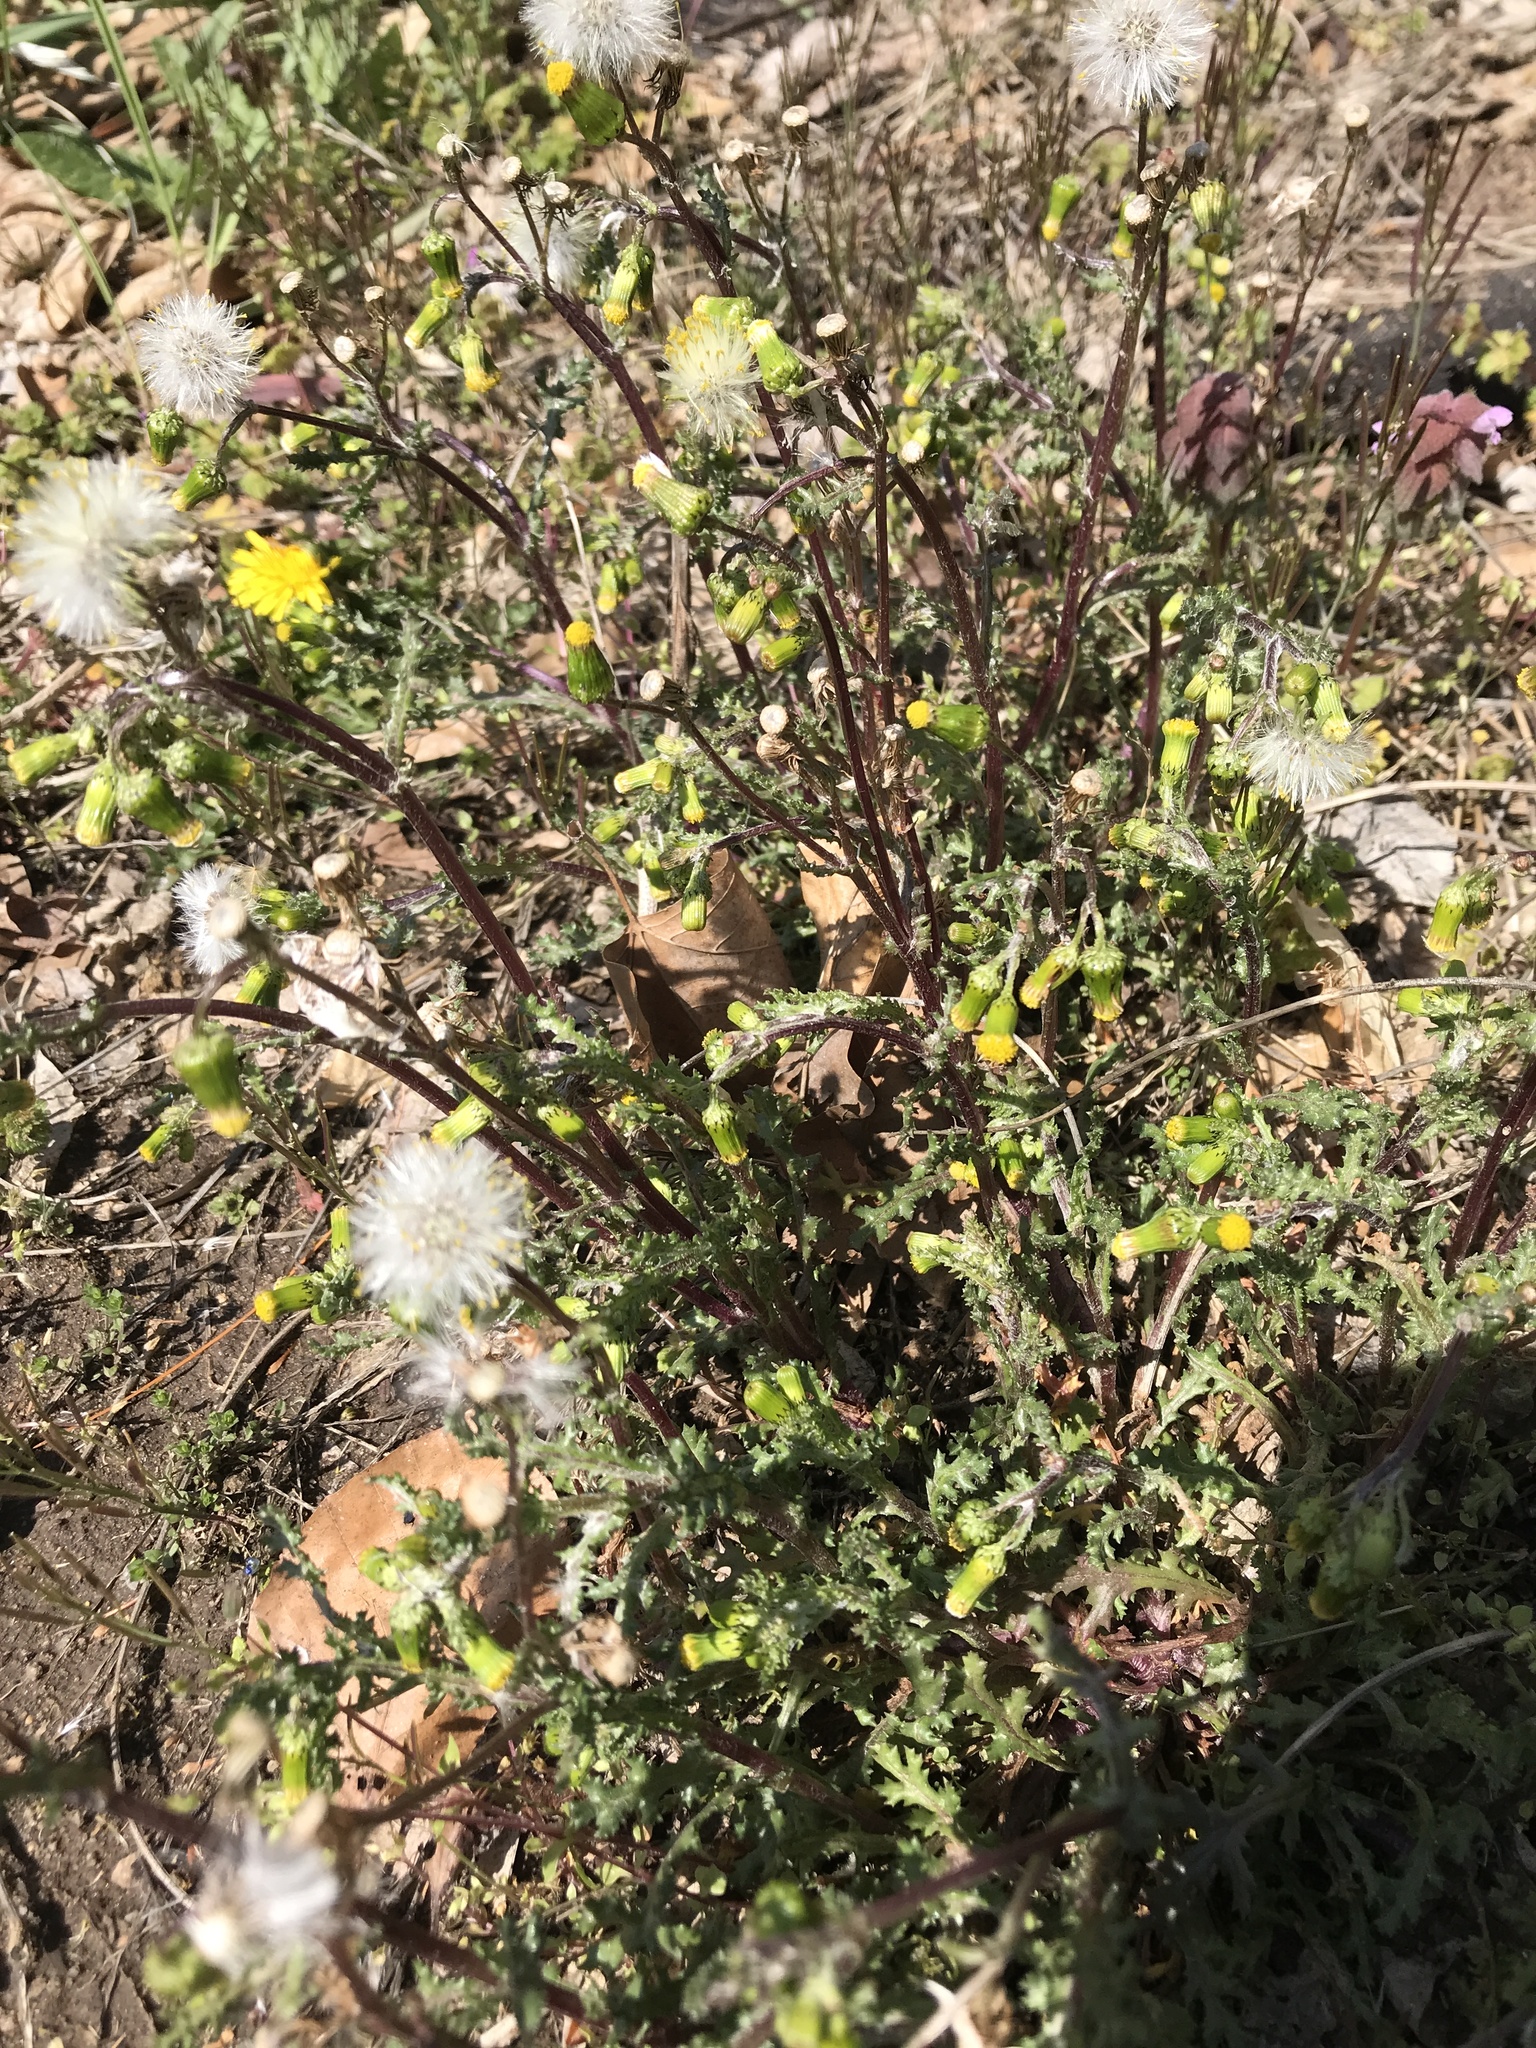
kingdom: Plantae
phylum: Tracheophyta
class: Magnoliopsida
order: Asterales
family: Asteraceae
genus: Senecio
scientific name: Senecio vulgaris
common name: Old-man-in-the-spring
